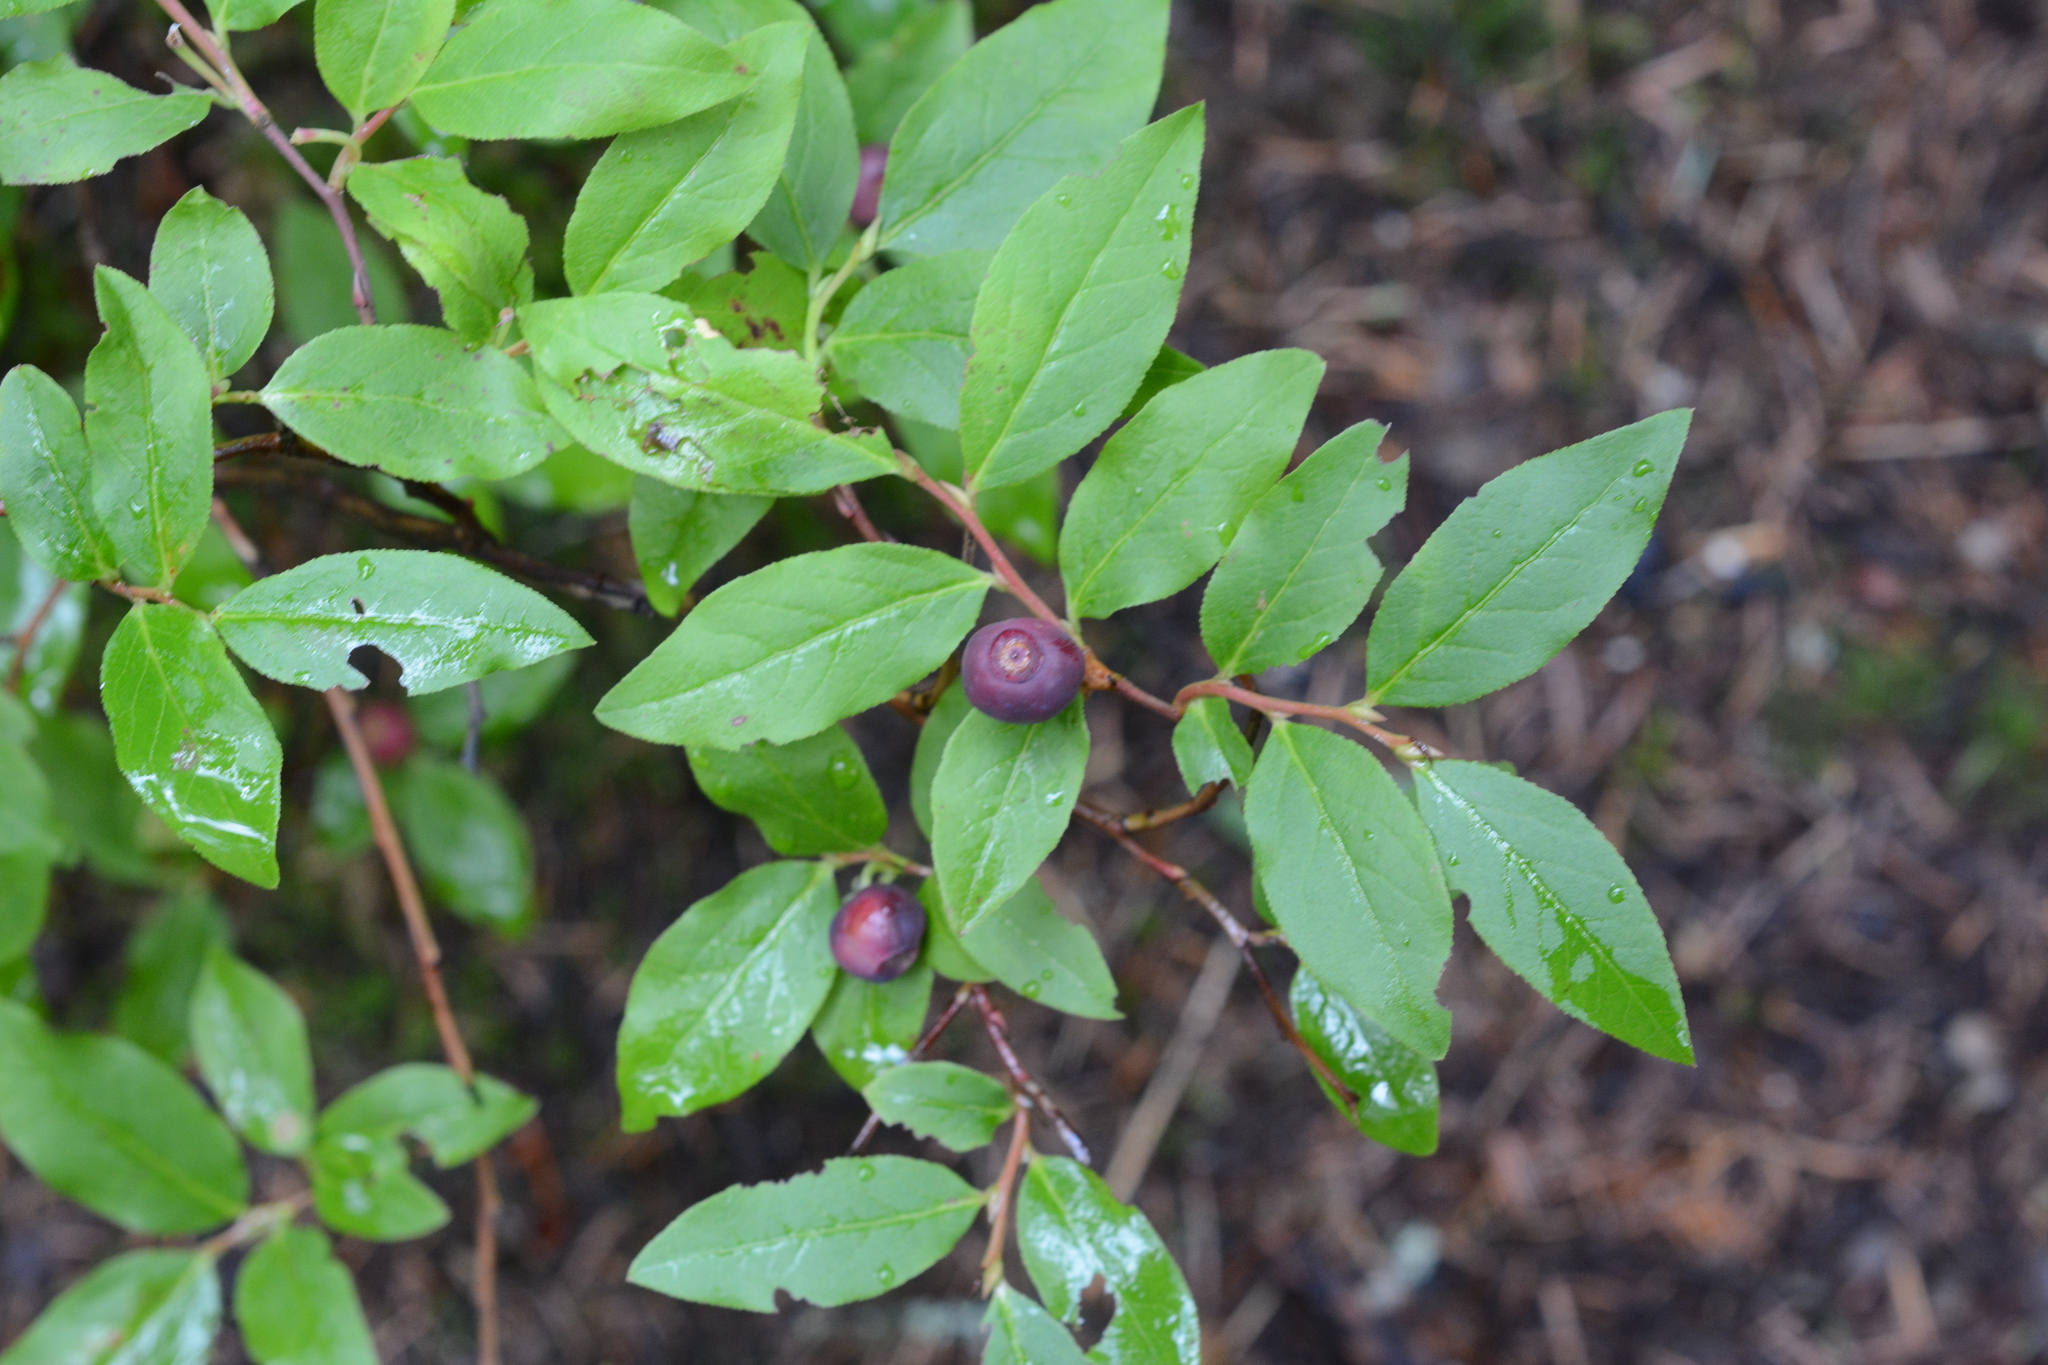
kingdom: Plantae
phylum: Tracheophyta
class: Magnoliopsida
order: Ericales
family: Ericaceae
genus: Vaccinium
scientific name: Vaccinium membranaceum
